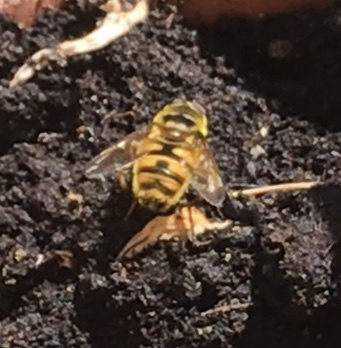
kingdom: Animalia
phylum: Arthropoda
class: Insecta
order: Diptera
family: Syrphidae
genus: Myathropa
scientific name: Myathropa florea
